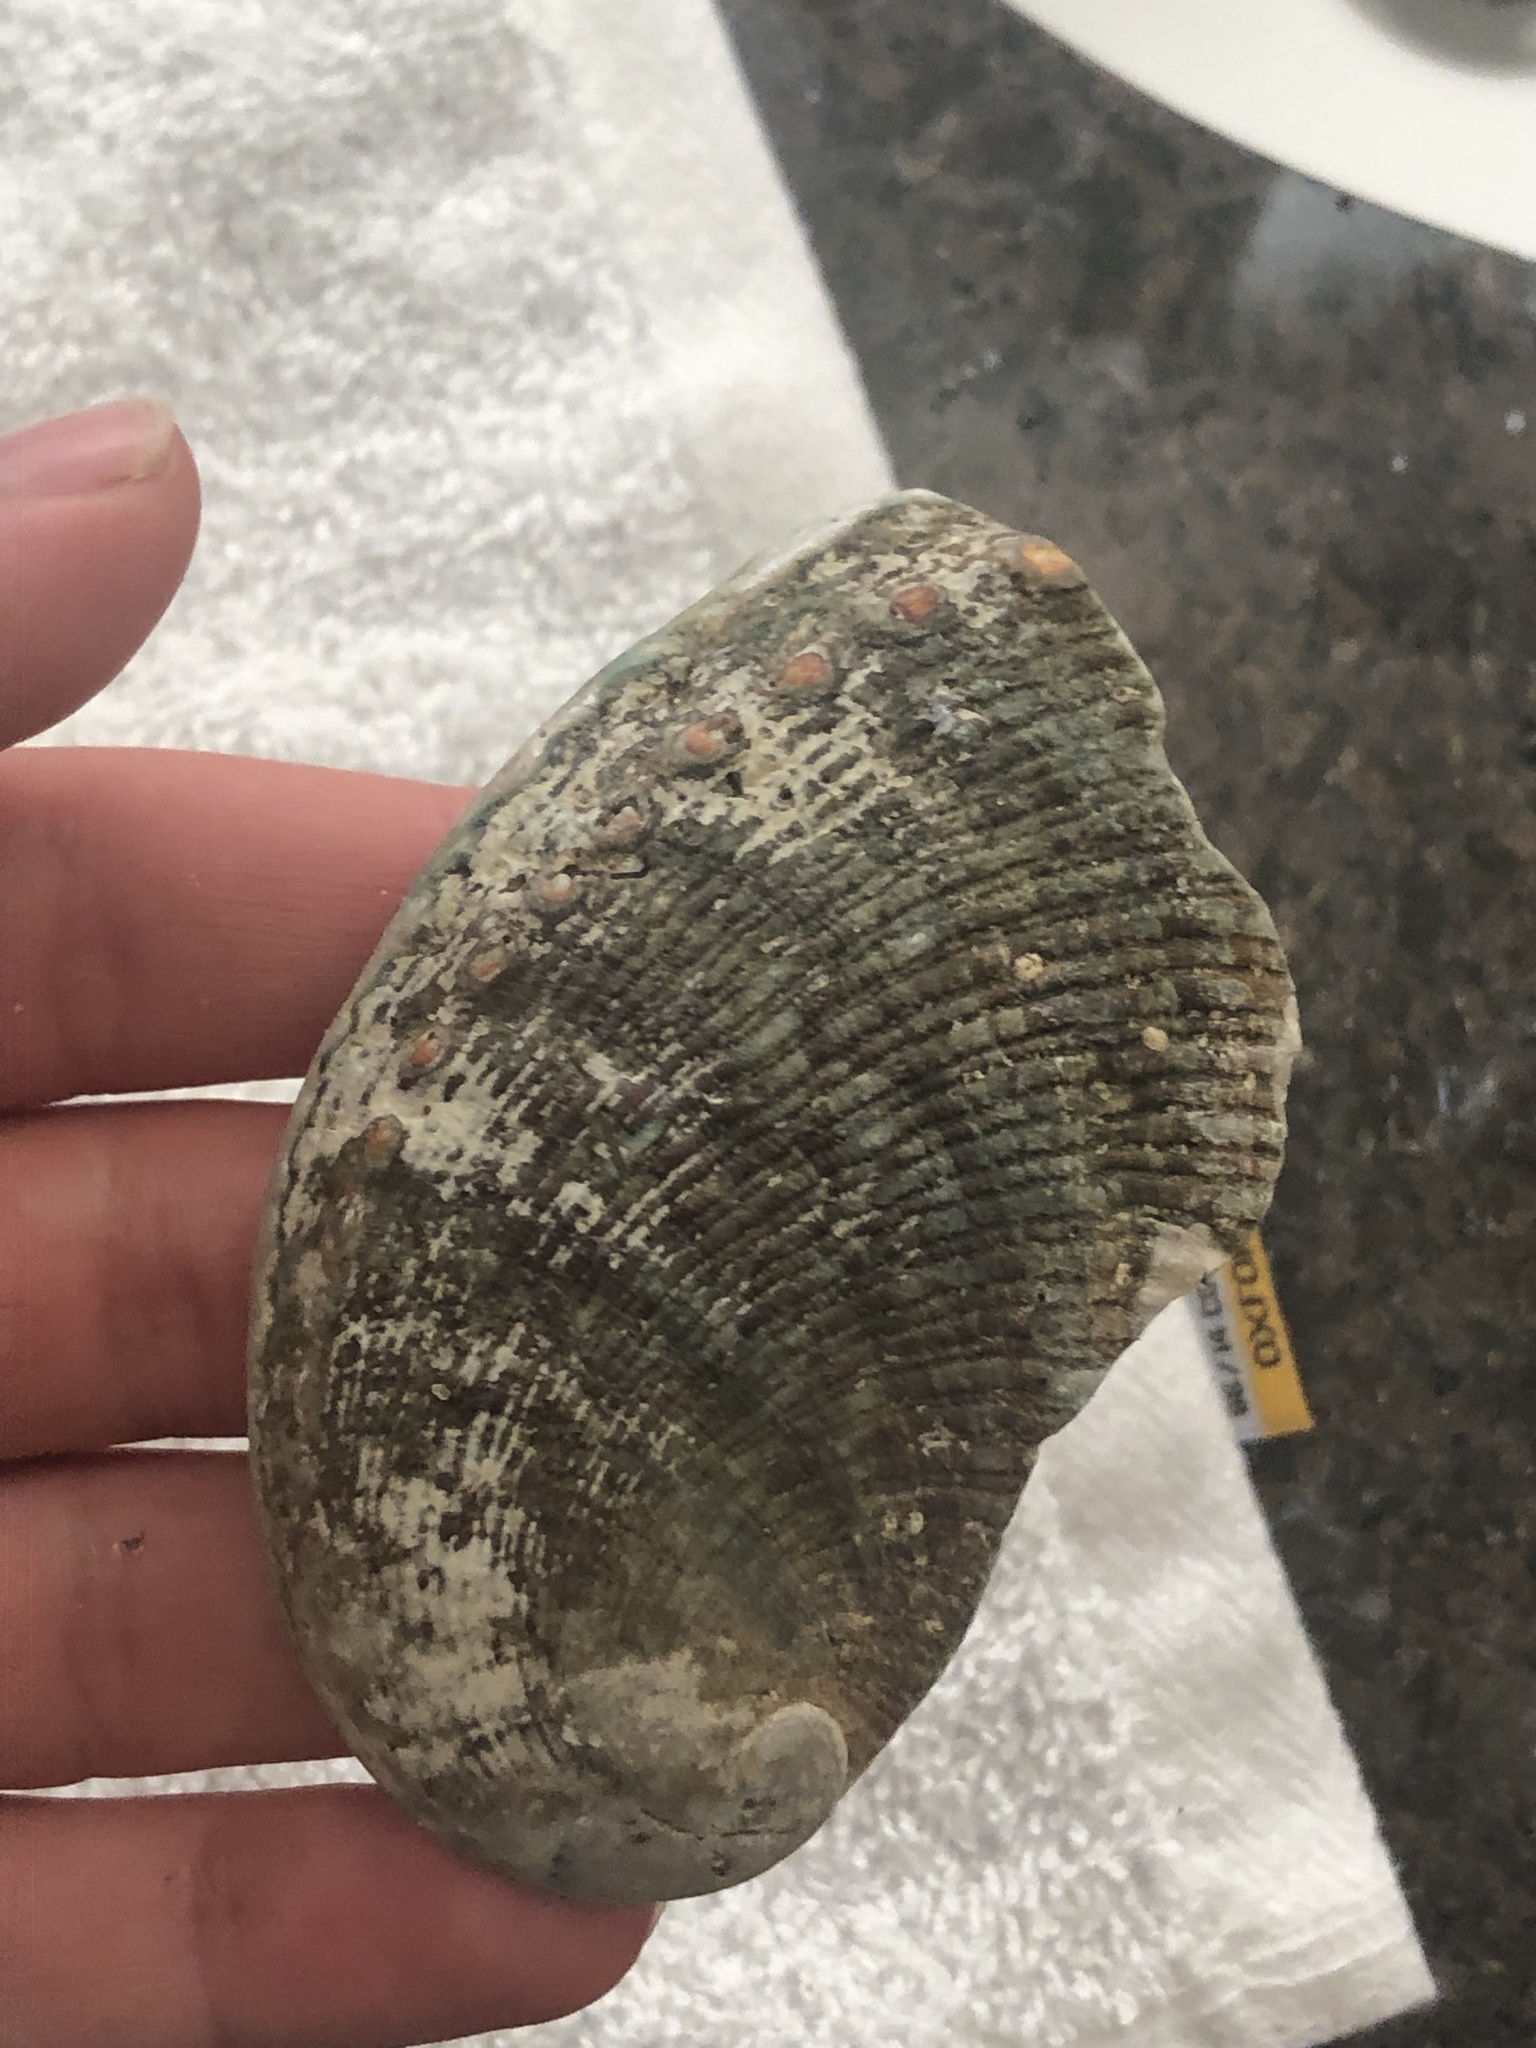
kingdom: Animalia
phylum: Mollusca
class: Gastropoda
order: Lepetellida
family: Haliotidae
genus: Haliotis
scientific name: Haliotis fulgens
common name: Green abalone
